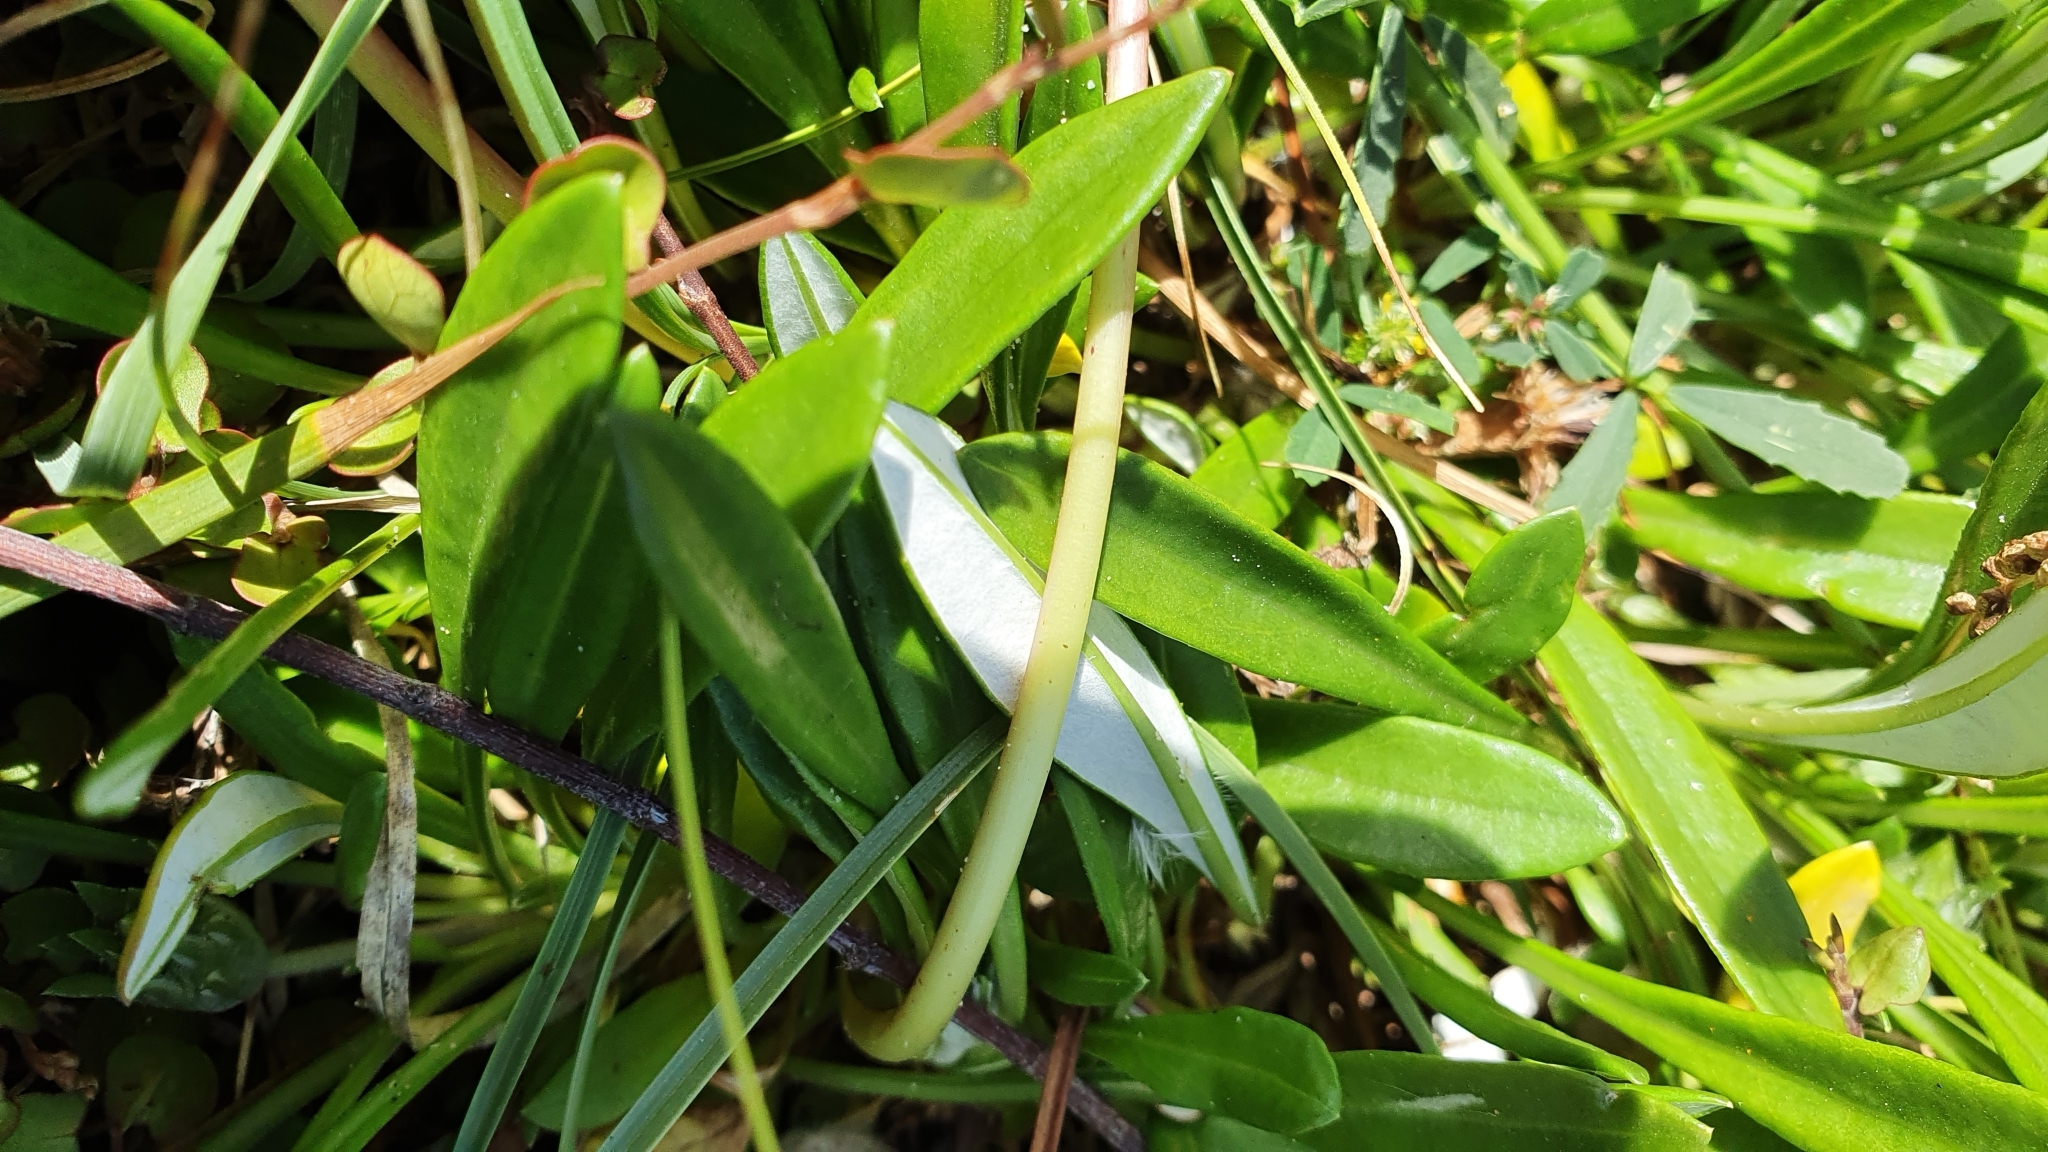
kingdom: Plantae
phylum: Tracheophyta
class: Magnoliopsida
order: Asterales
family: Asteraceae
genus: Gazania
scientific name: Gazania rigens
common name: Treasureflower
